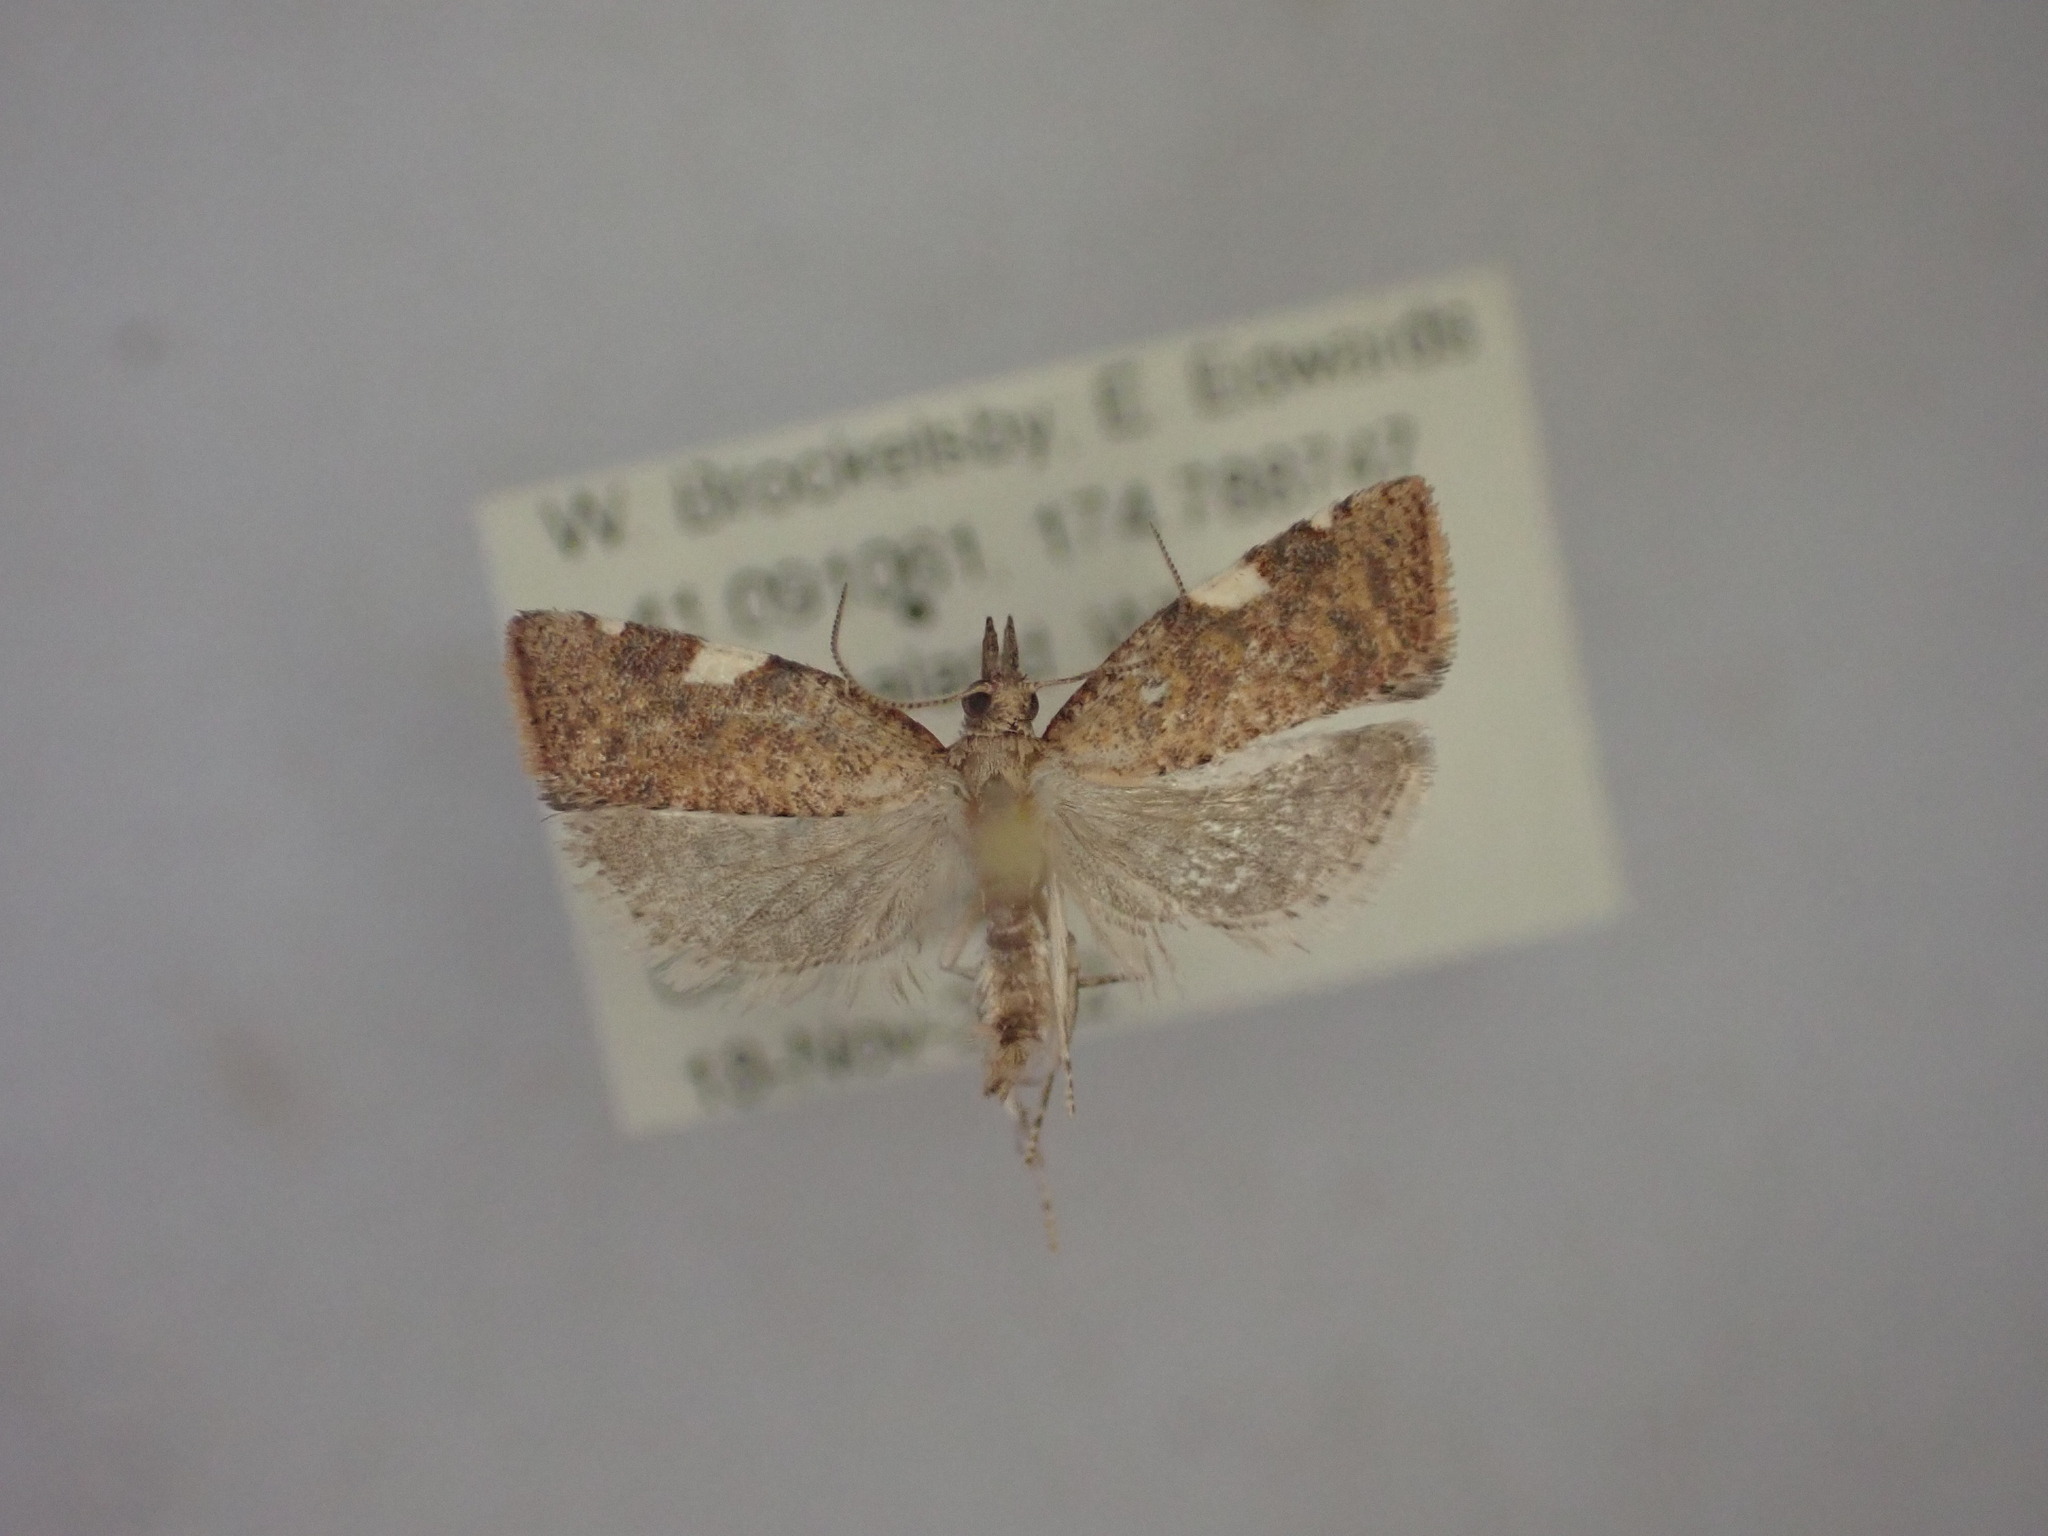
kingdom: Animalia
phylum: Arthropoda
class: Insecta
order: Lepidoptera
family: Tortricidae
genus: Catamacta
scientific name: Catamacta gavisana
